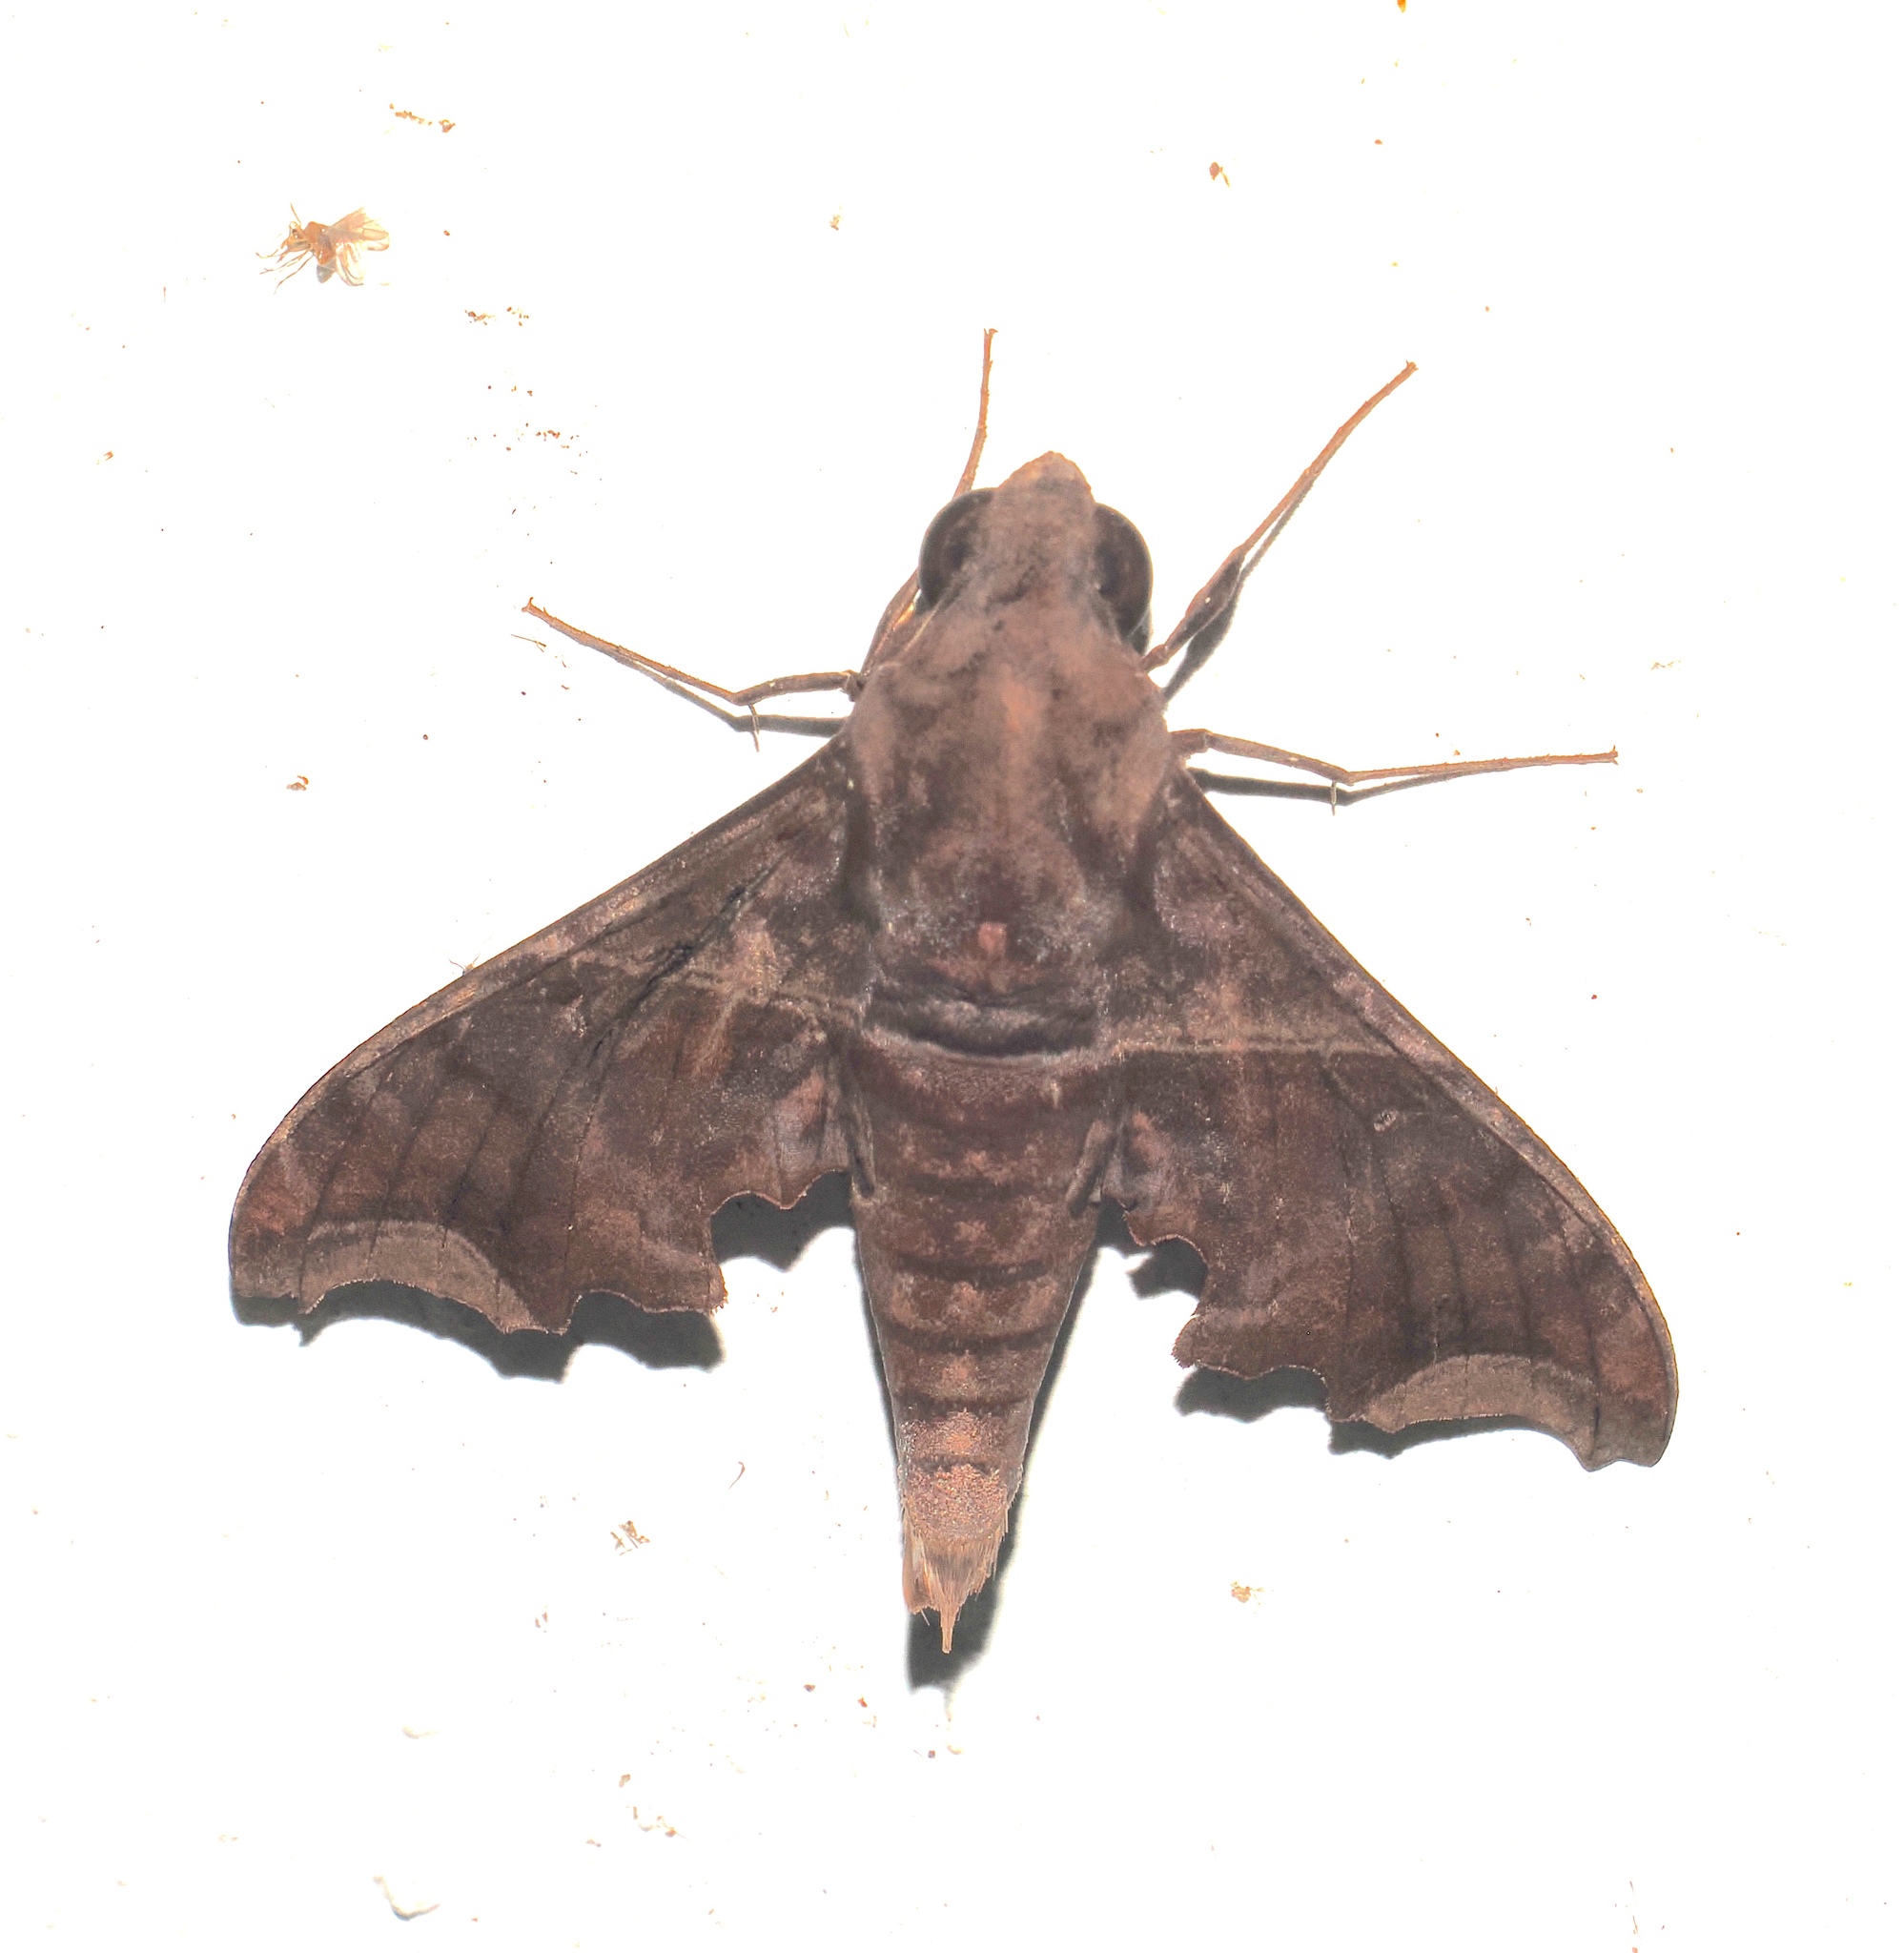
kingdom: Animalia
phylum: Arthropoda
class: Insecta
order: Lepidoptera
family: Sphingidae
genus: Enyo
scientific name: Enyo ocypete
